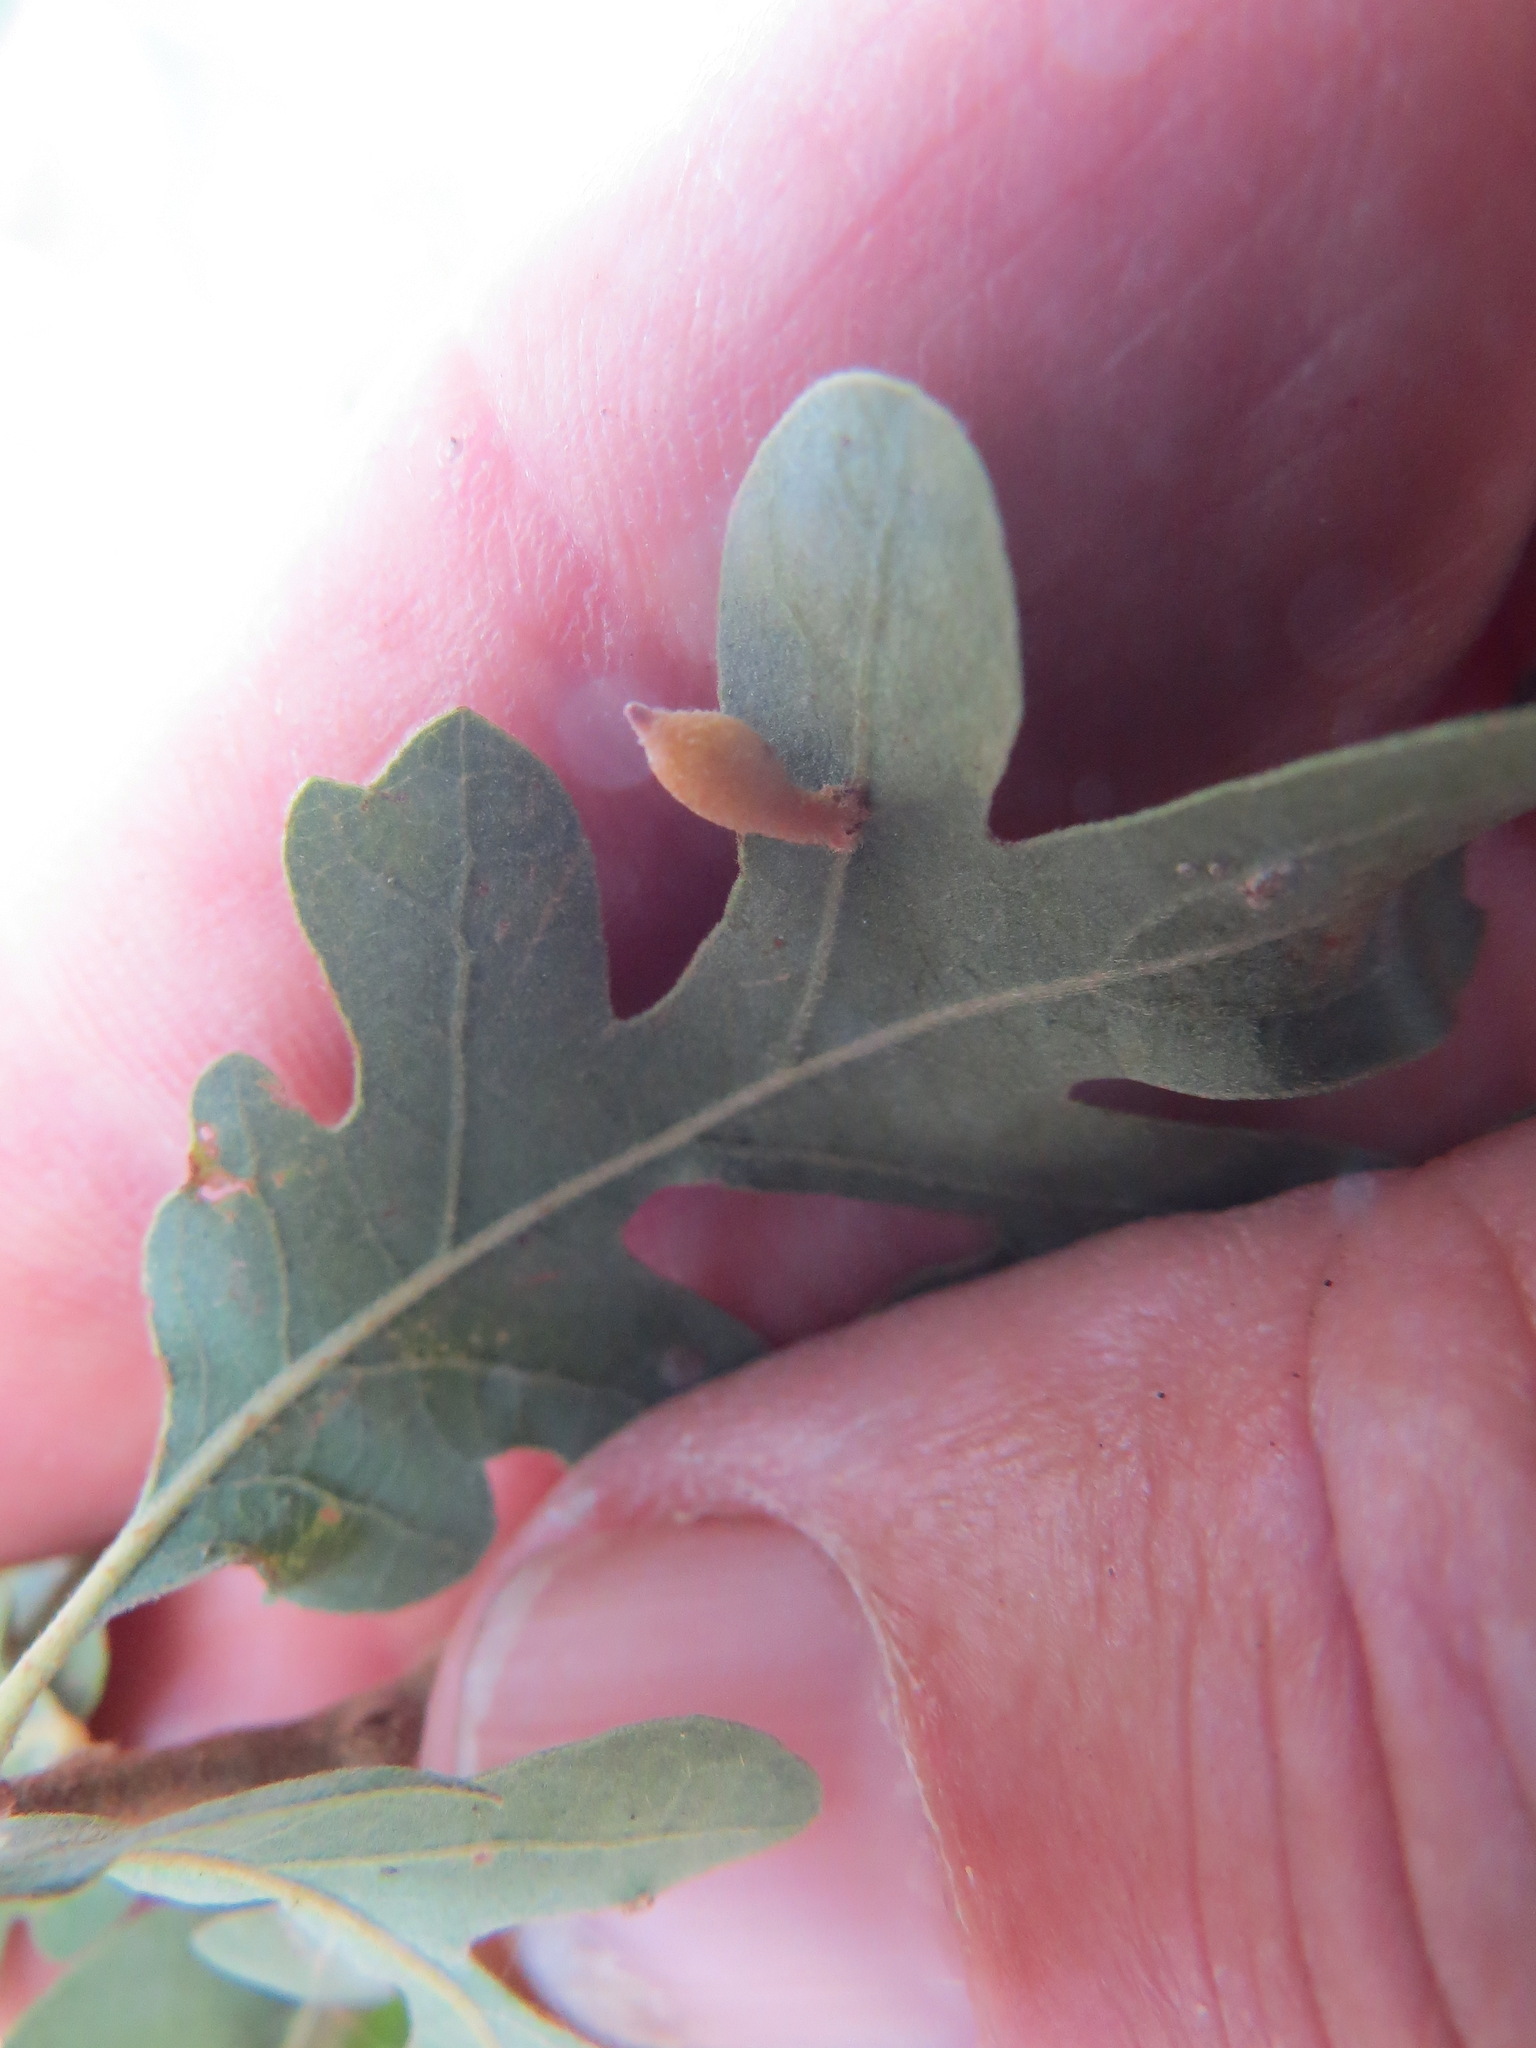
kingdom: Animalia
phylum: Arthropoda
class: Insecta
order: Hymenoptera
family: Cynipidae
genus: Atrusca
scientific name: Atrusca
